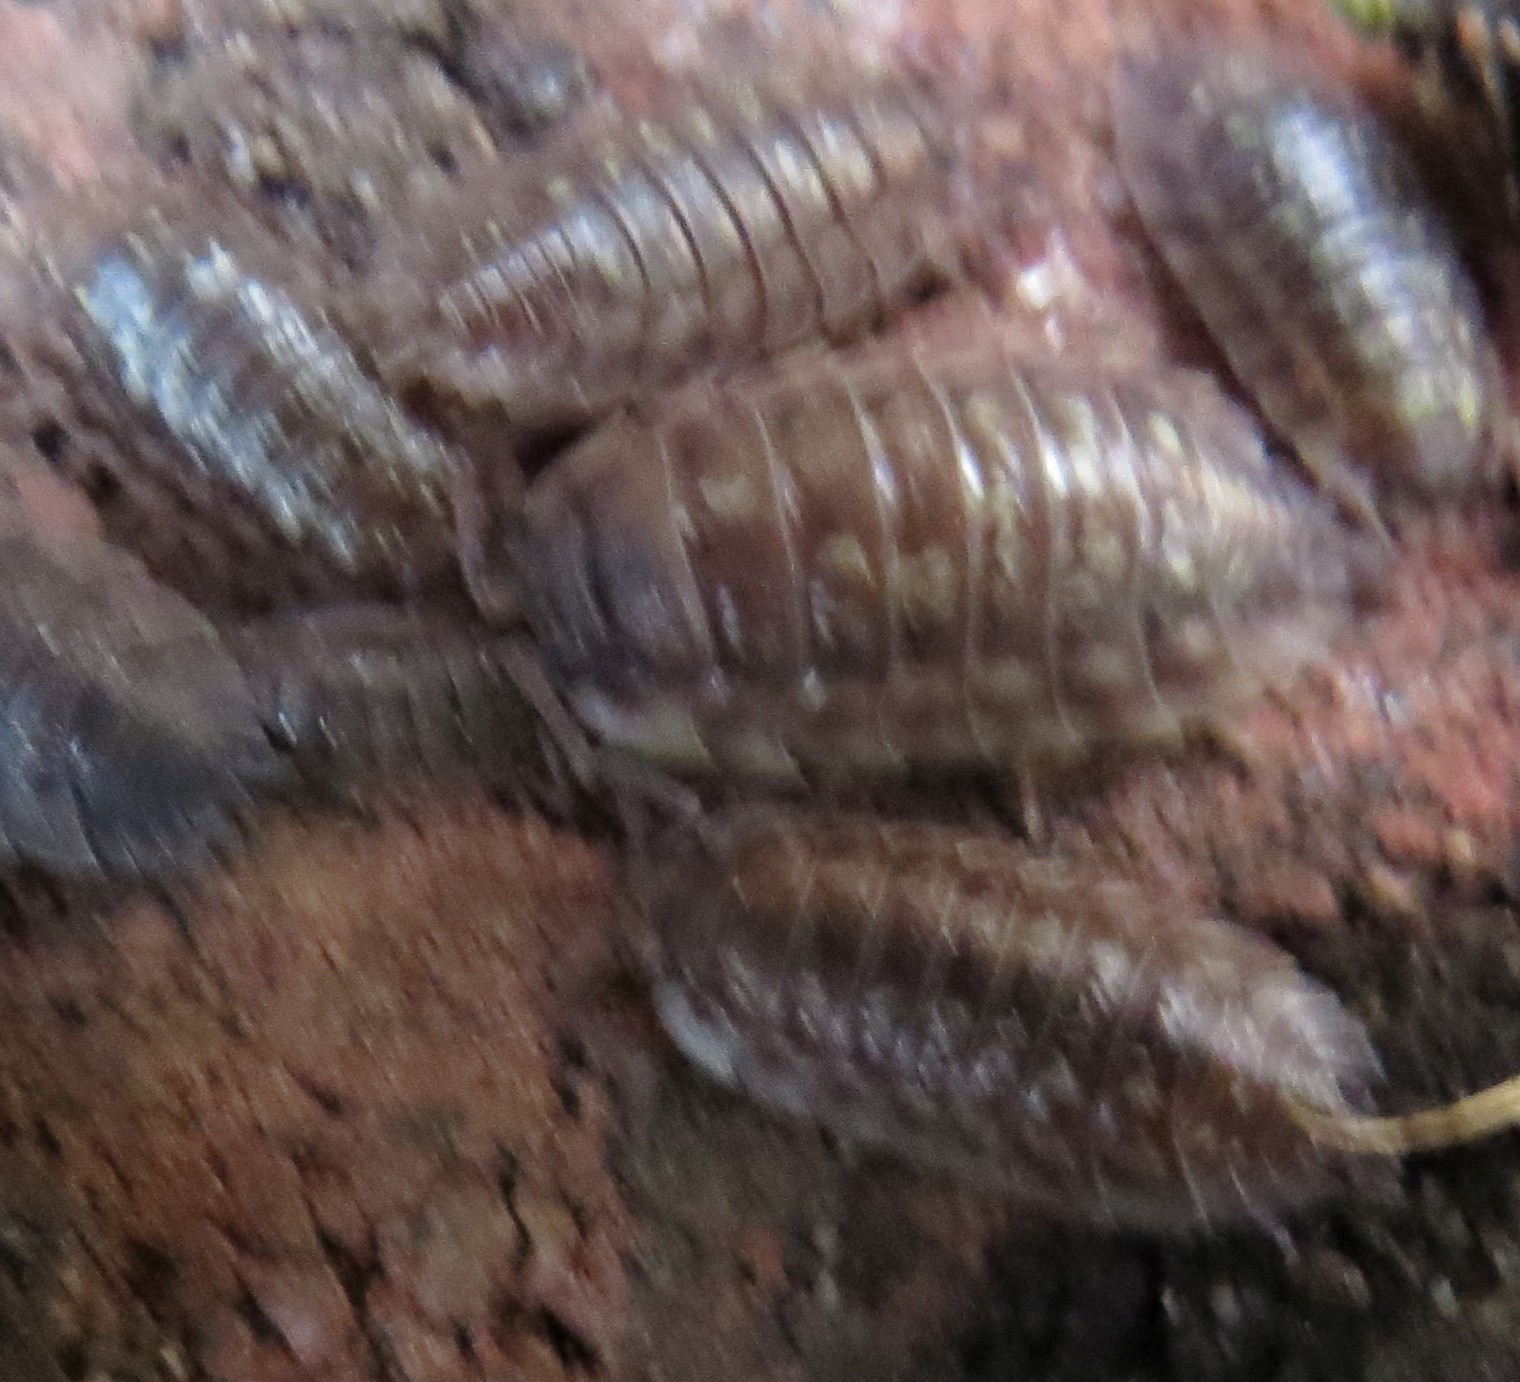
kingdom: Animalia
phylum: Arthropoda
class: Malacostraca
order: Isopoda
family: Oniscidae
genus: Oniscus
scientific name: Oniscus asellus
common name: Common shiny woodlouse
